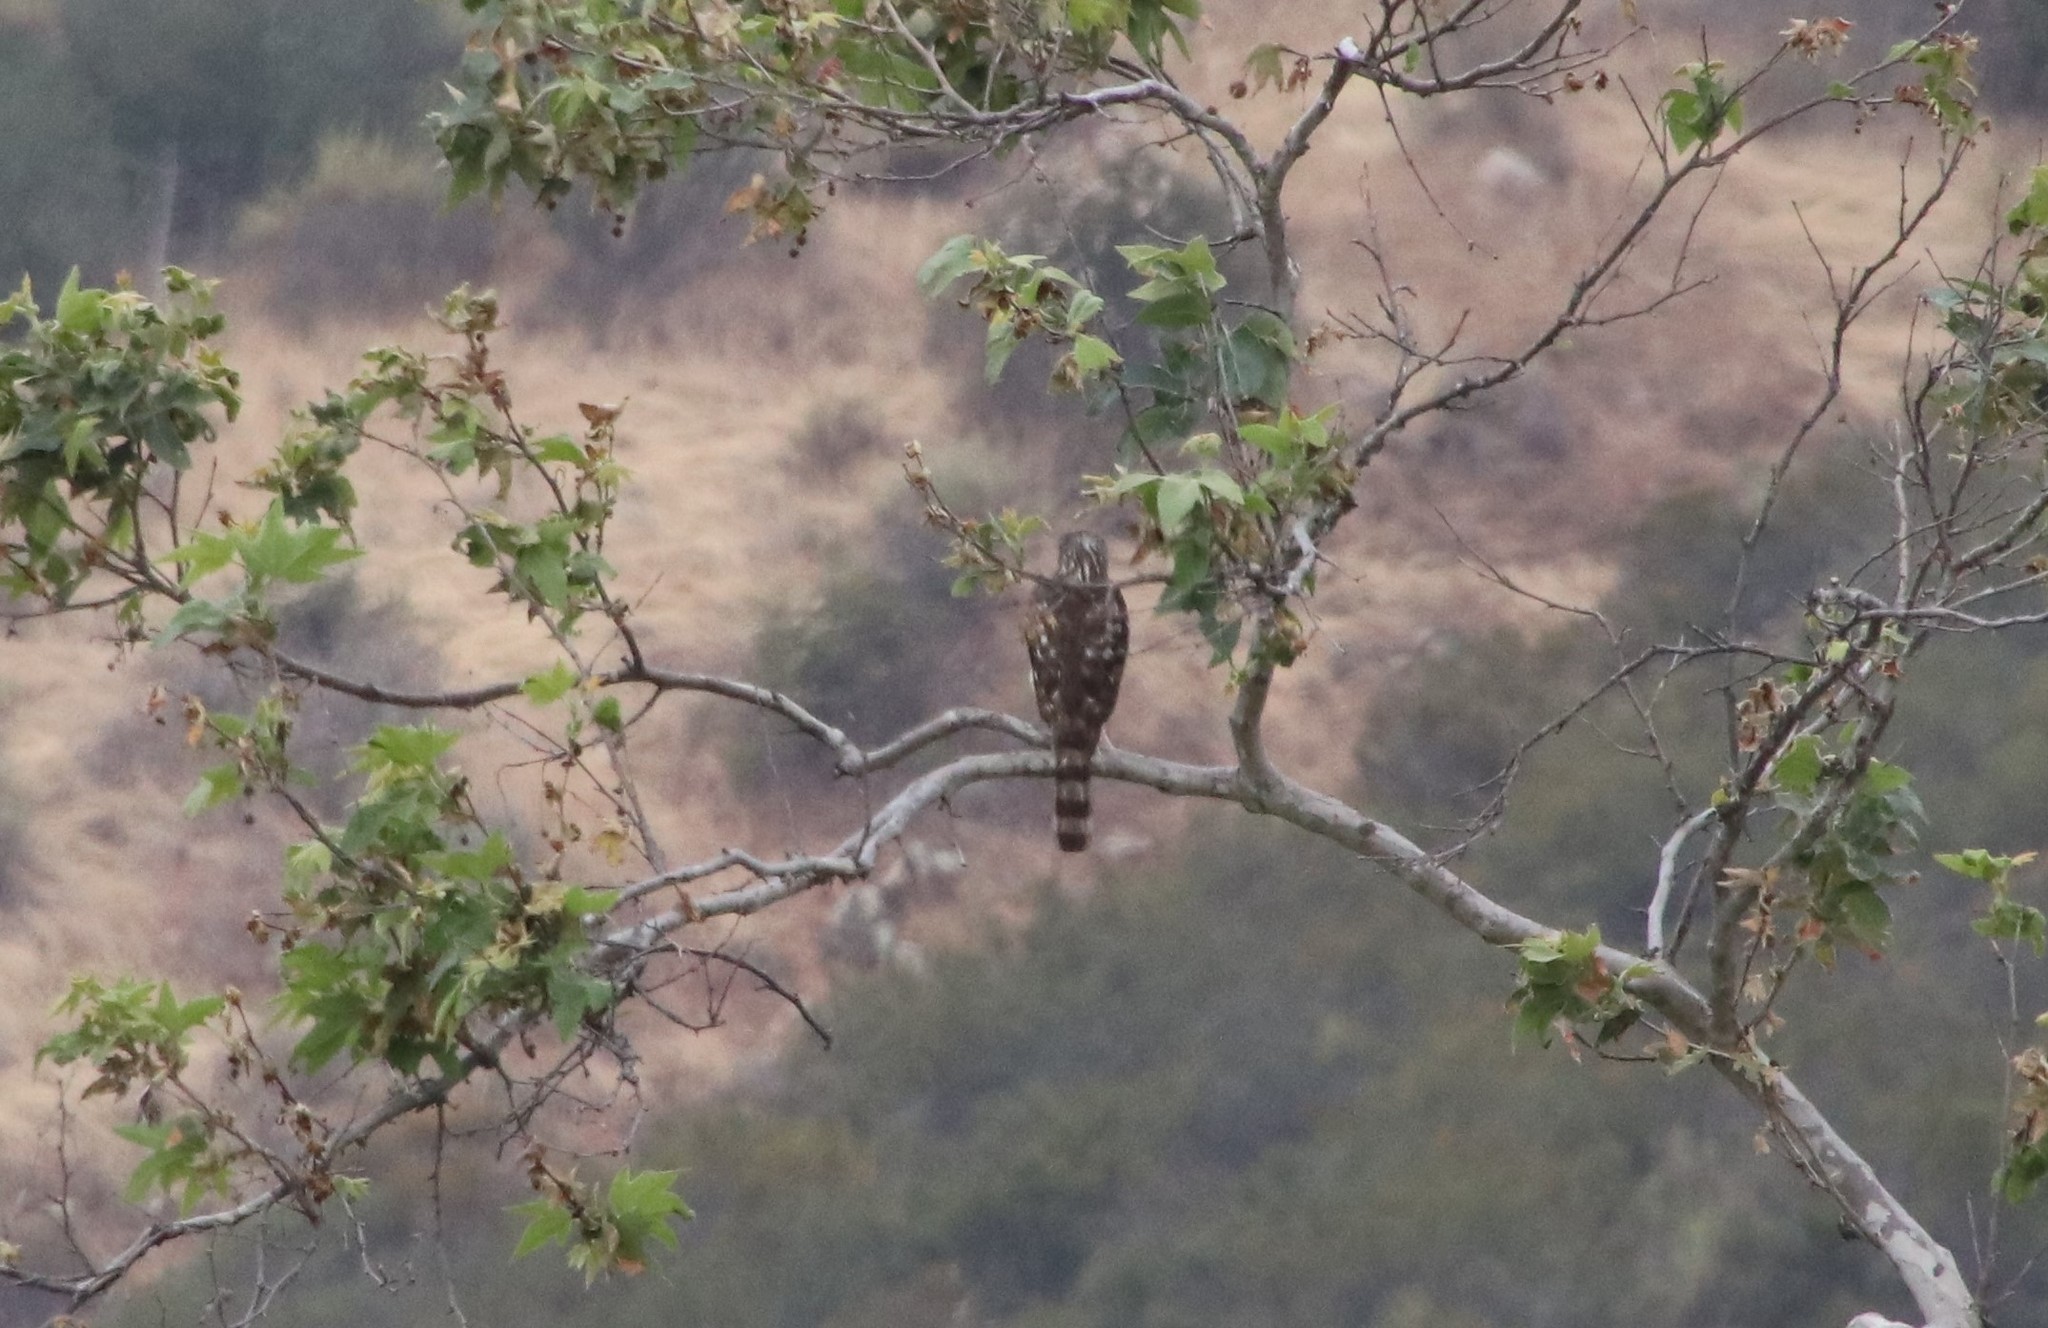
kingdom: Animalia
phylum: Chordata
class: Aves
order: Accipitriformes
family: Accipitridae
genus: Accipiter
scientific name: Accipiter cooperii
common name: Cooper's hawk
